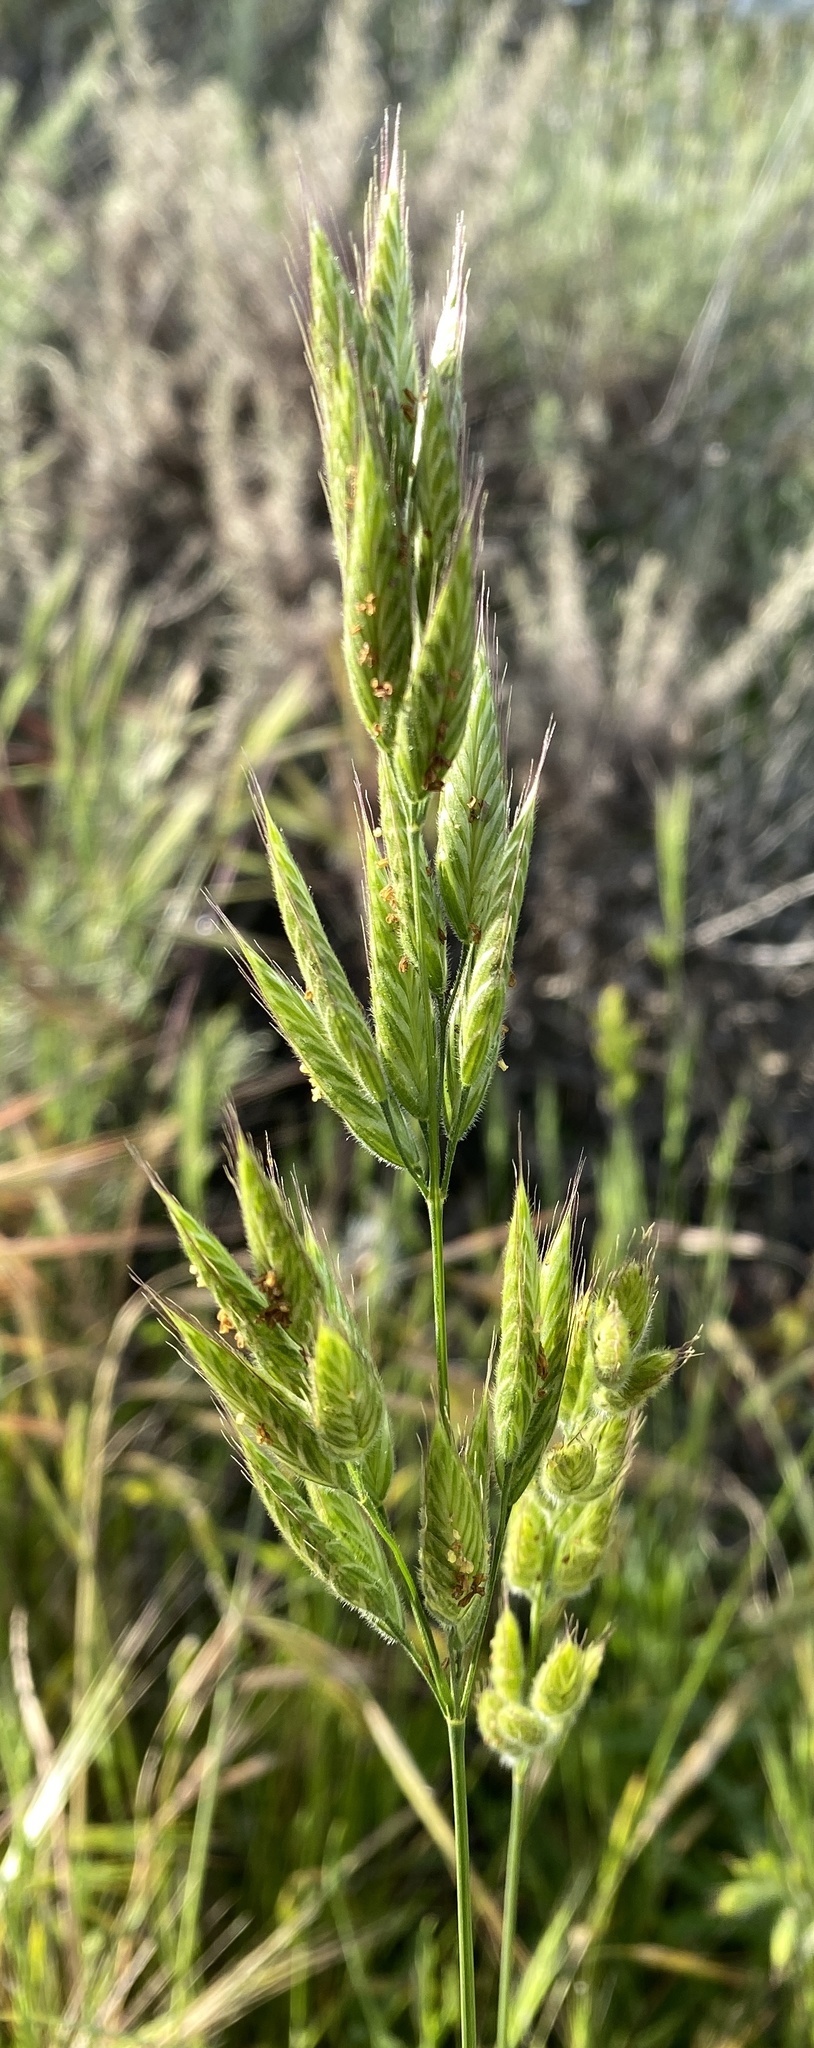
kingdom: Plantae
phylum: Tracheophyta
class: Liliopsida
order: Poales
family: Poaceae
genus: Bromus
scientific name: Bromus hordeaceus
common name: Soft brome
